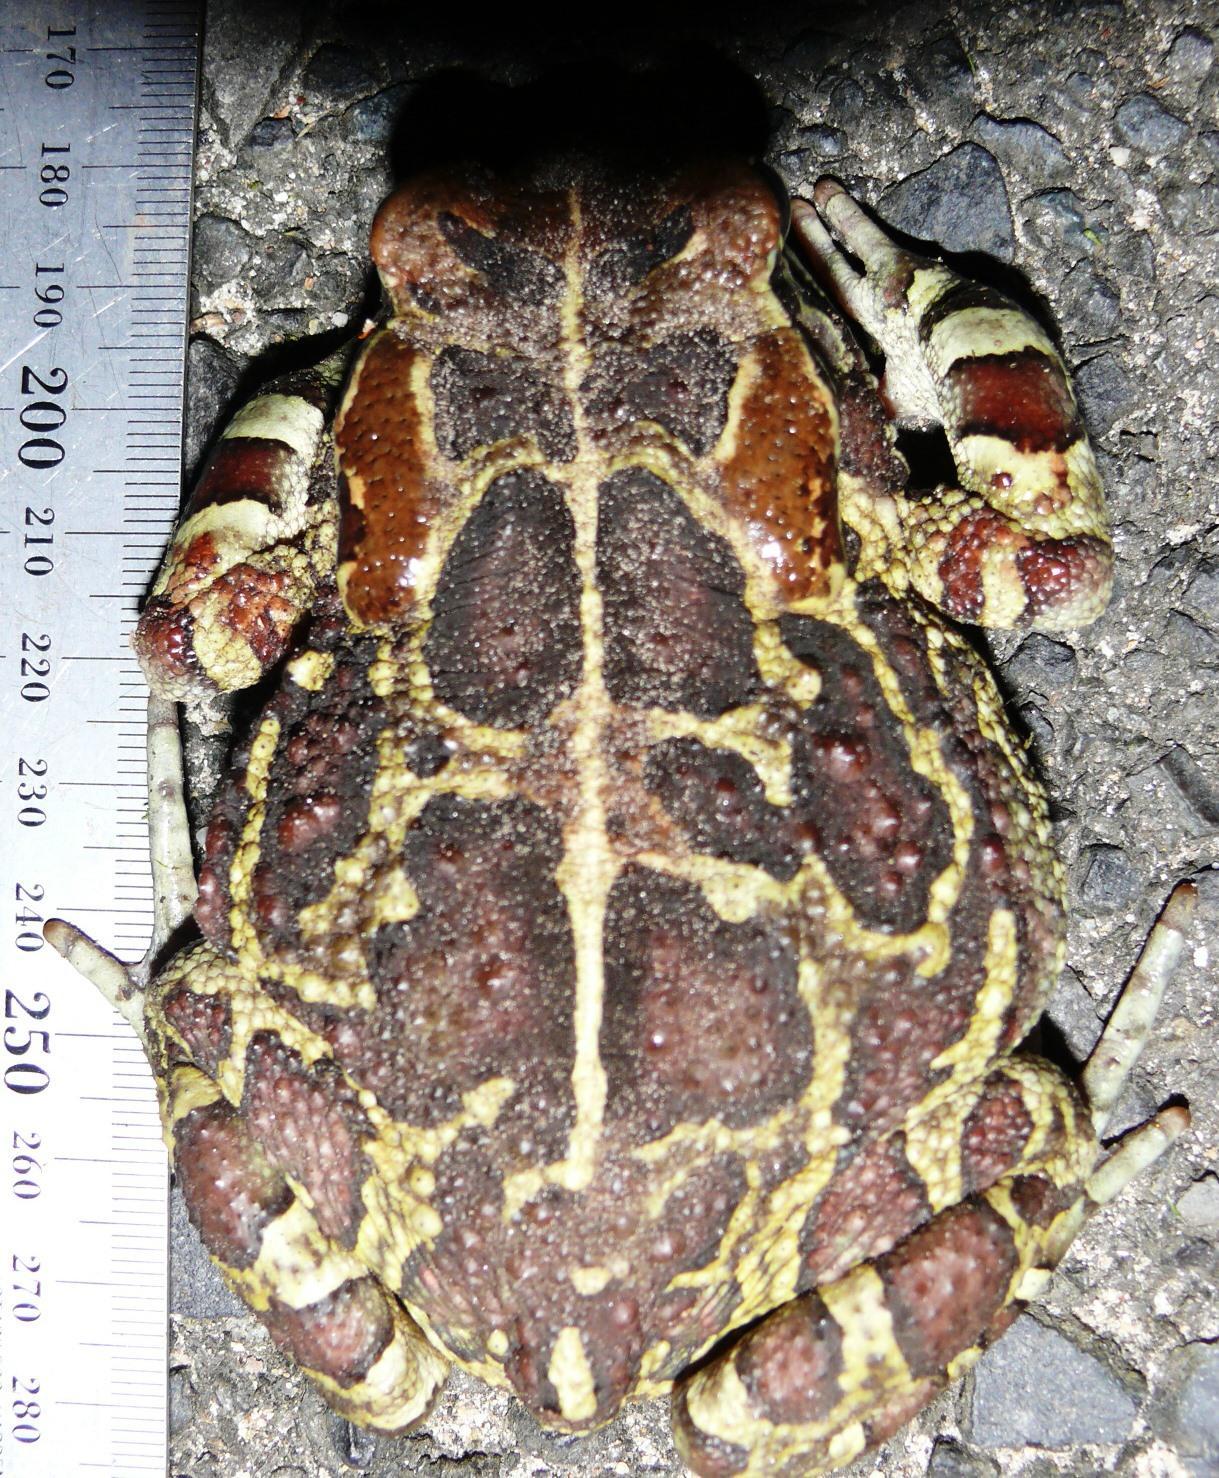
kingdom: Animalia
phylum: Chordata
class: Amphibia
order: Anura
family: Bufonidae
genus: Sclerophrys
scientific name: Sclerophrys pantherina
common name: Panther toad
